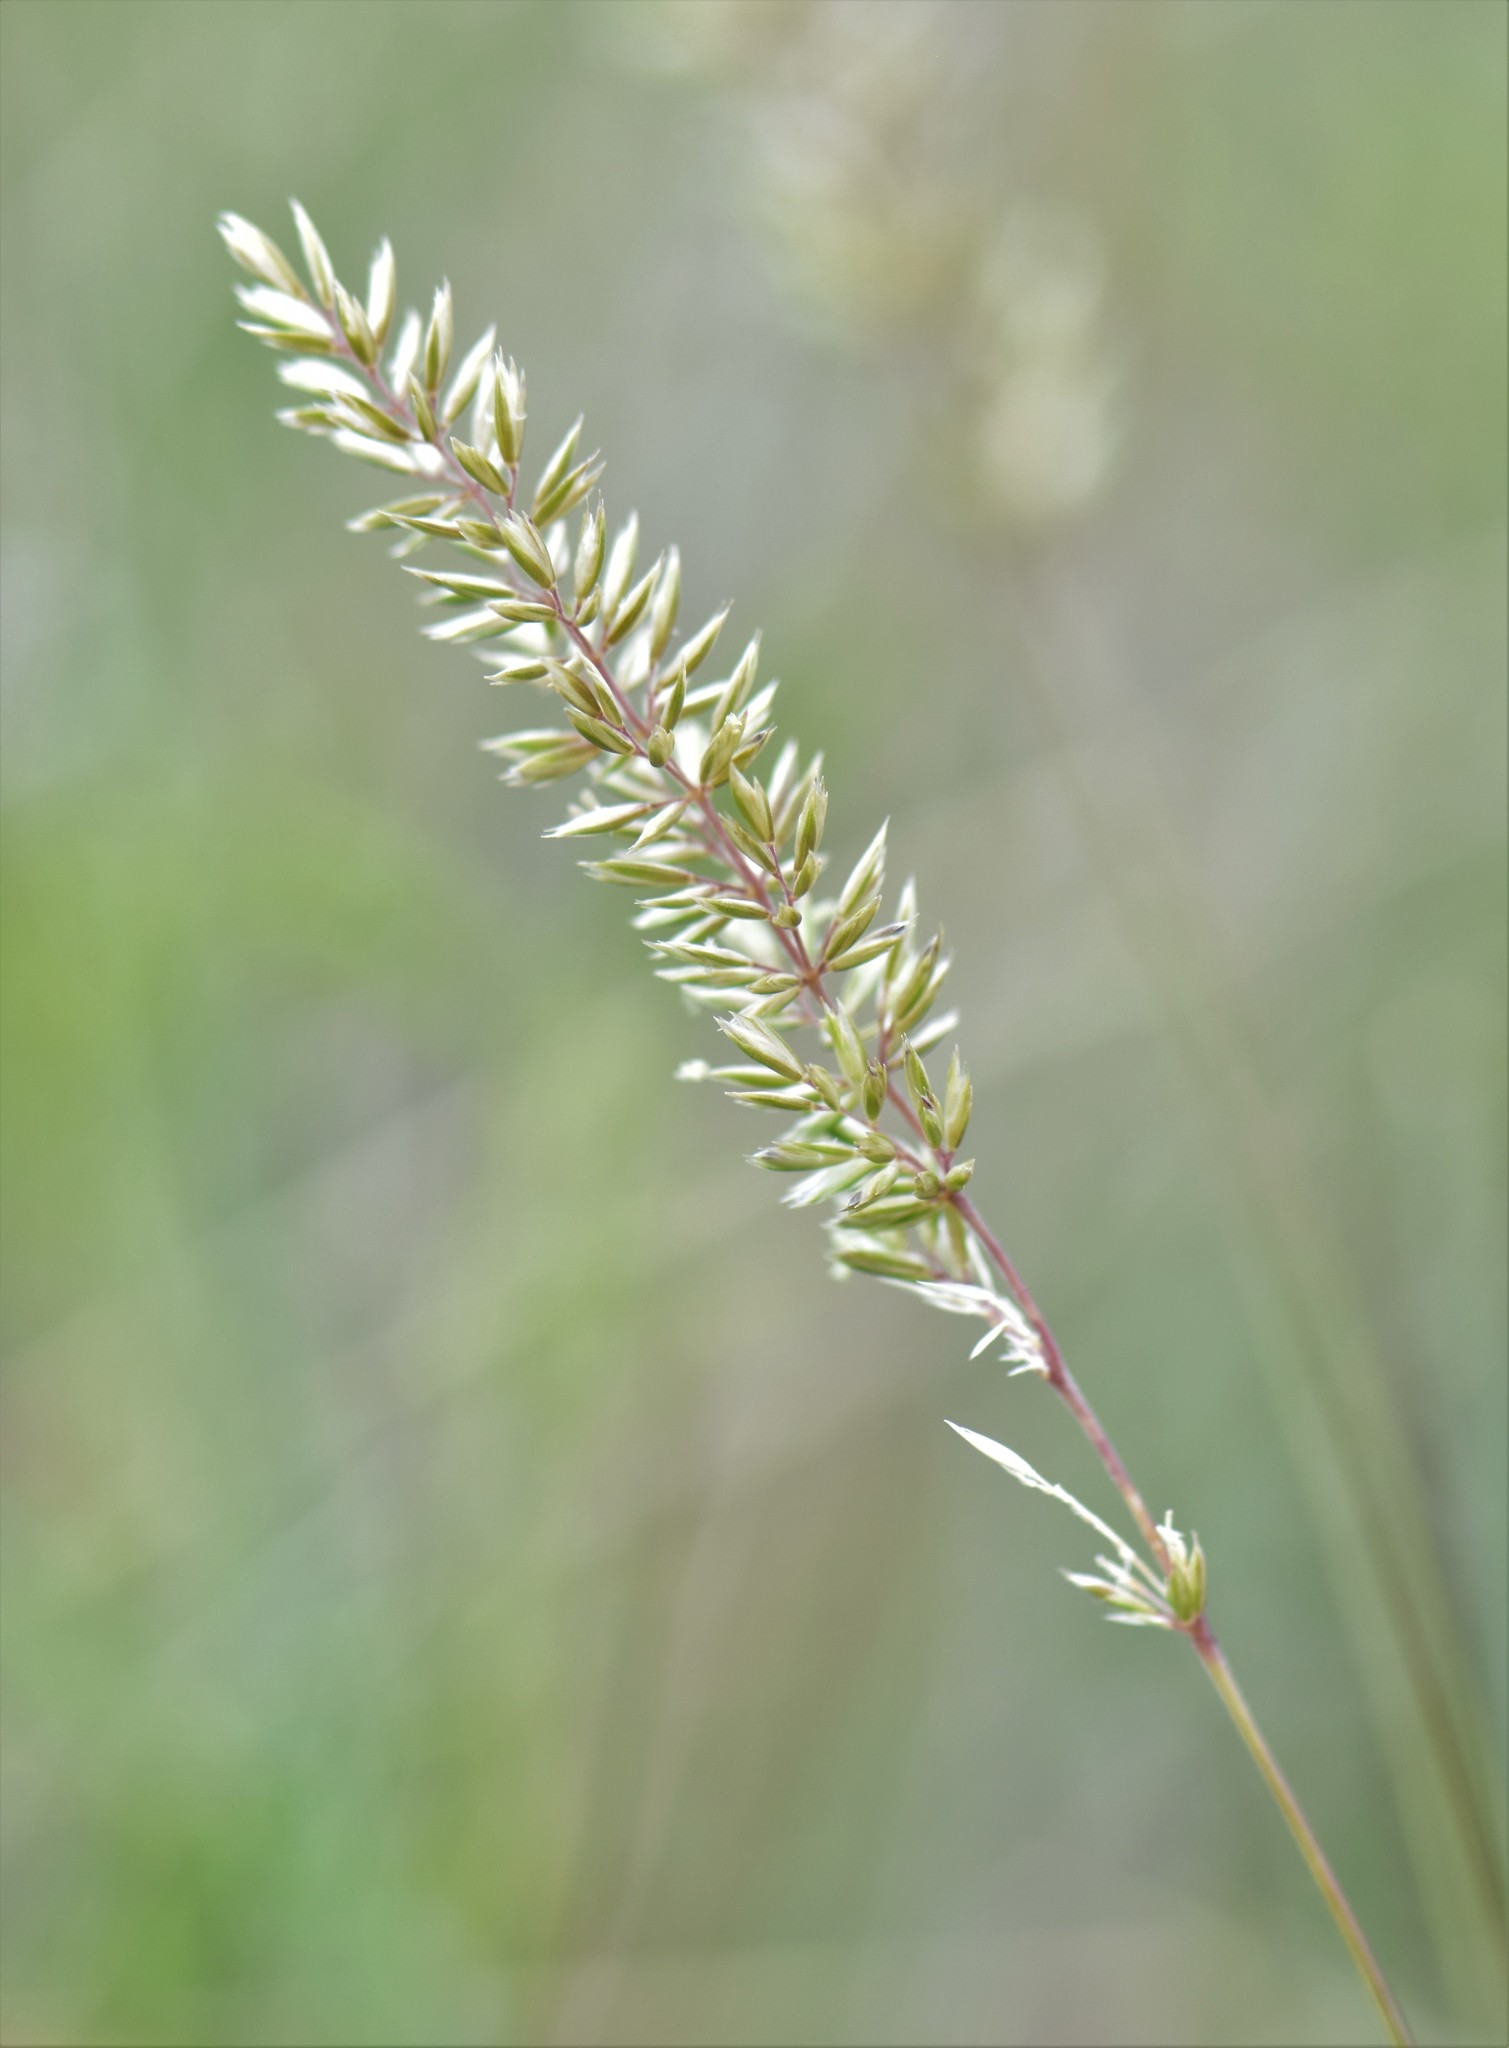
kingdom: Plantae
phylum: Tracheophyta
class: Liliopsida
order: Poales
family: Poaceae
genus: Koeleria
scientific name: Koeleria macrantha
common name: Crested hair-grass
